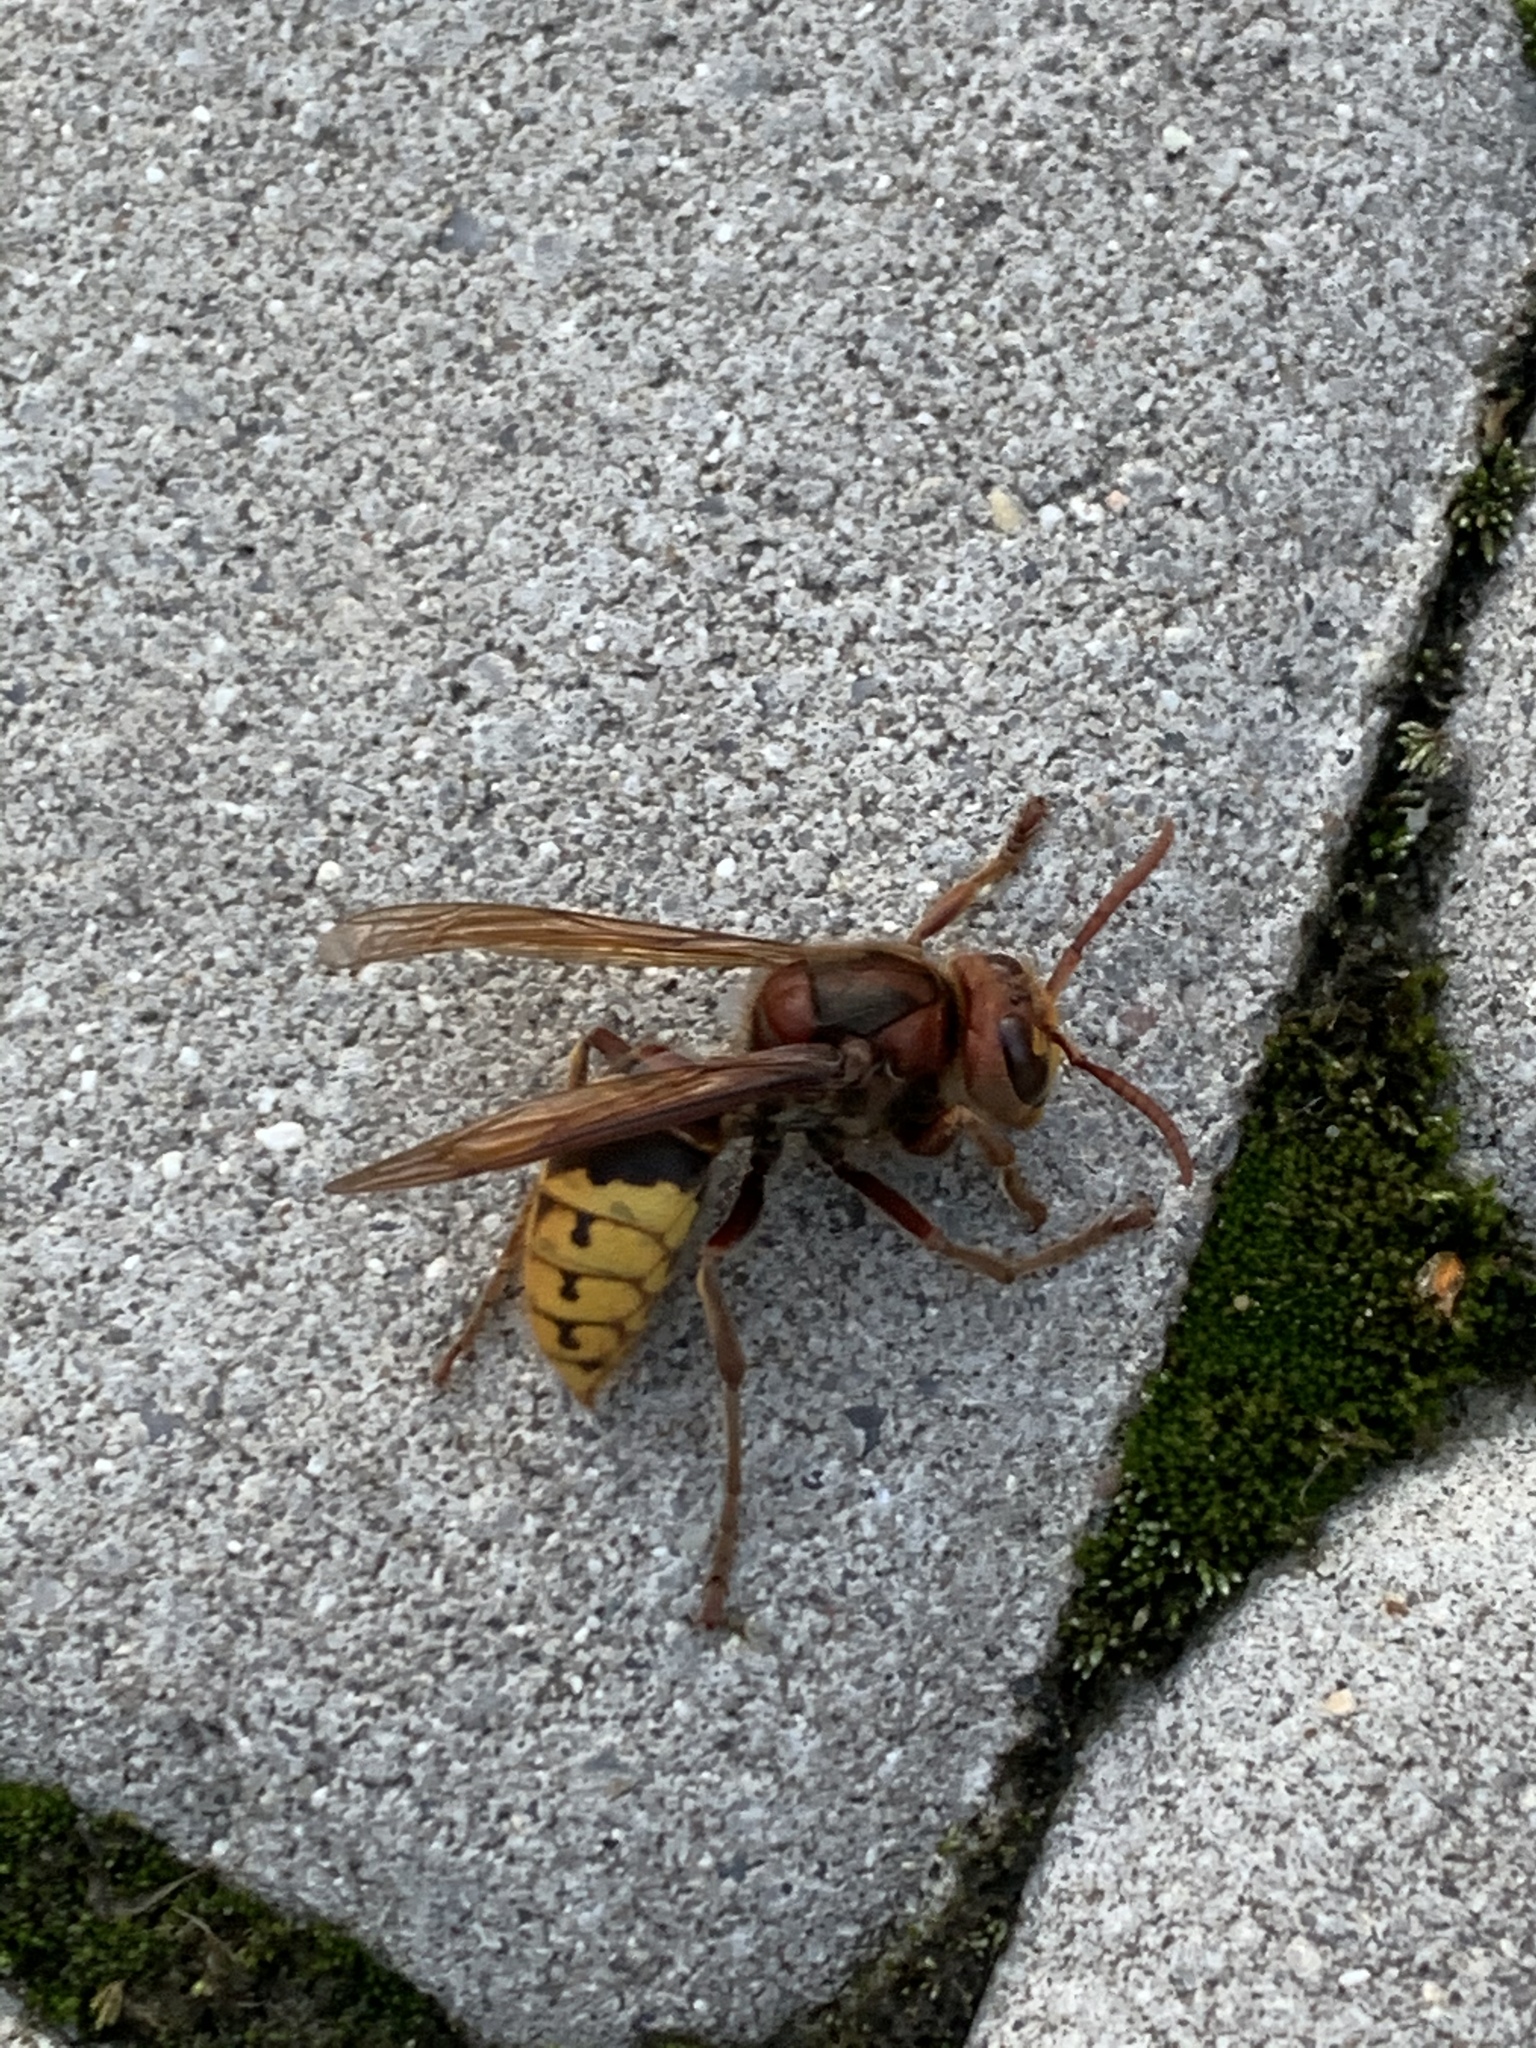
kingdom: Animalia
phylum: Arthropoda
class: Insecta
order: Hymenoptera
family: Vespidae
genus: Vespa
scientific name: Vespa crabro
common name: Hornet
